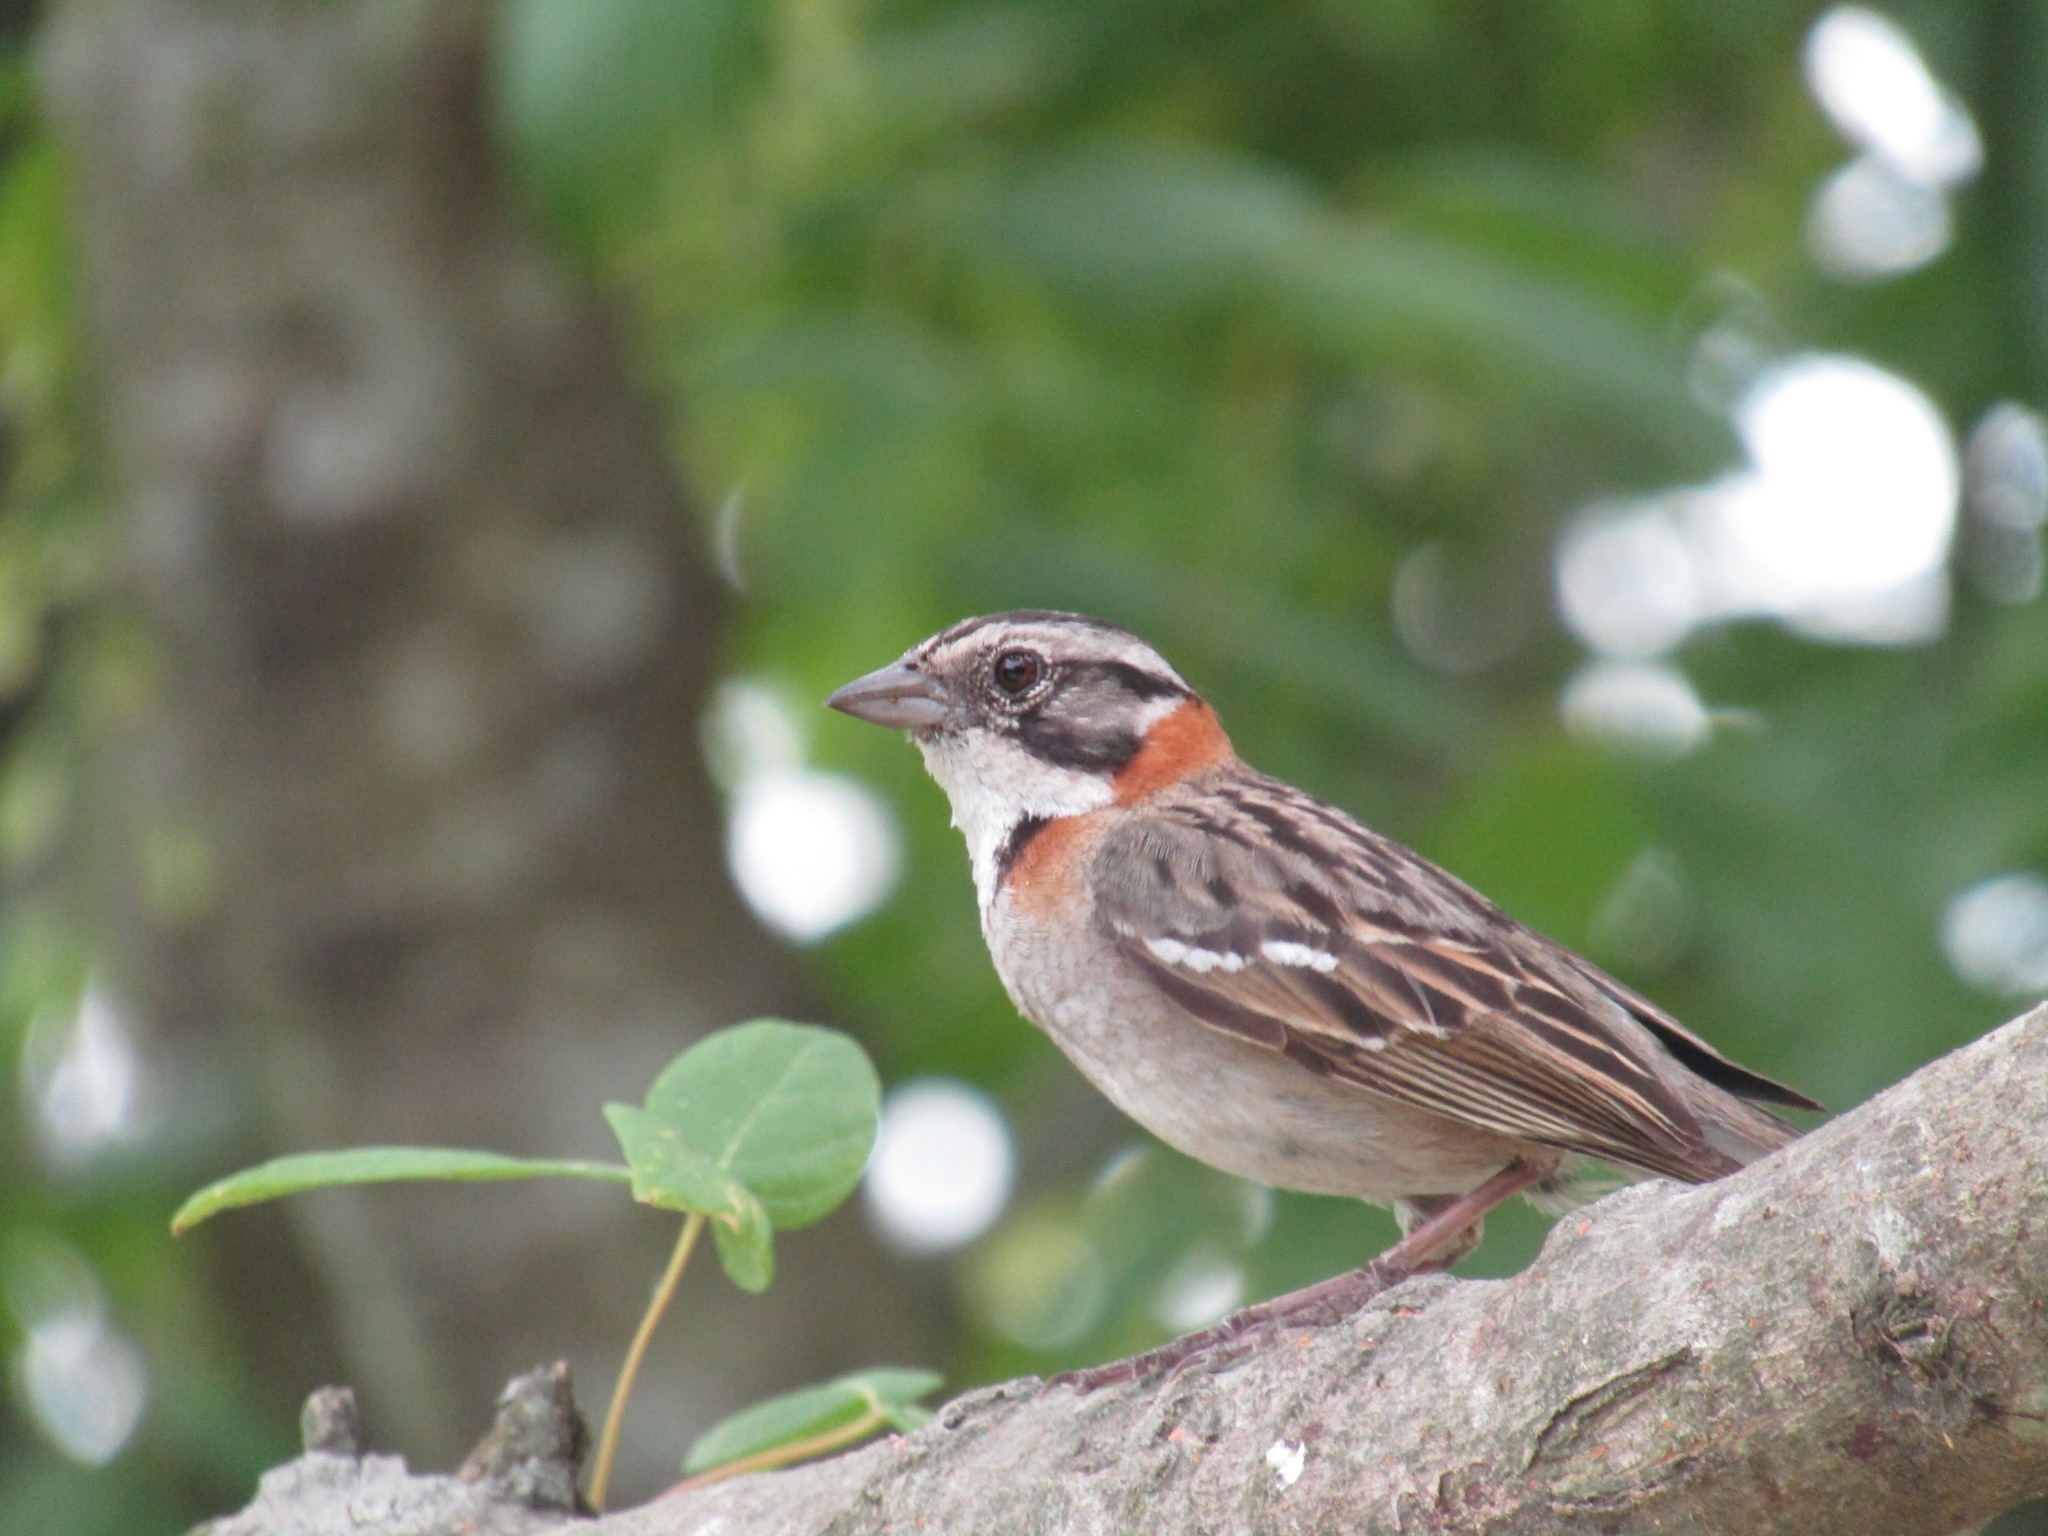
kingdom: Animalia
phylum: Chordata
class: Aves
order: Passeriformes
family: Passerellidae
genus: Zonotrichia
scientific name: Zonotrichia capensis
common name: Rufous-collared sparrow
